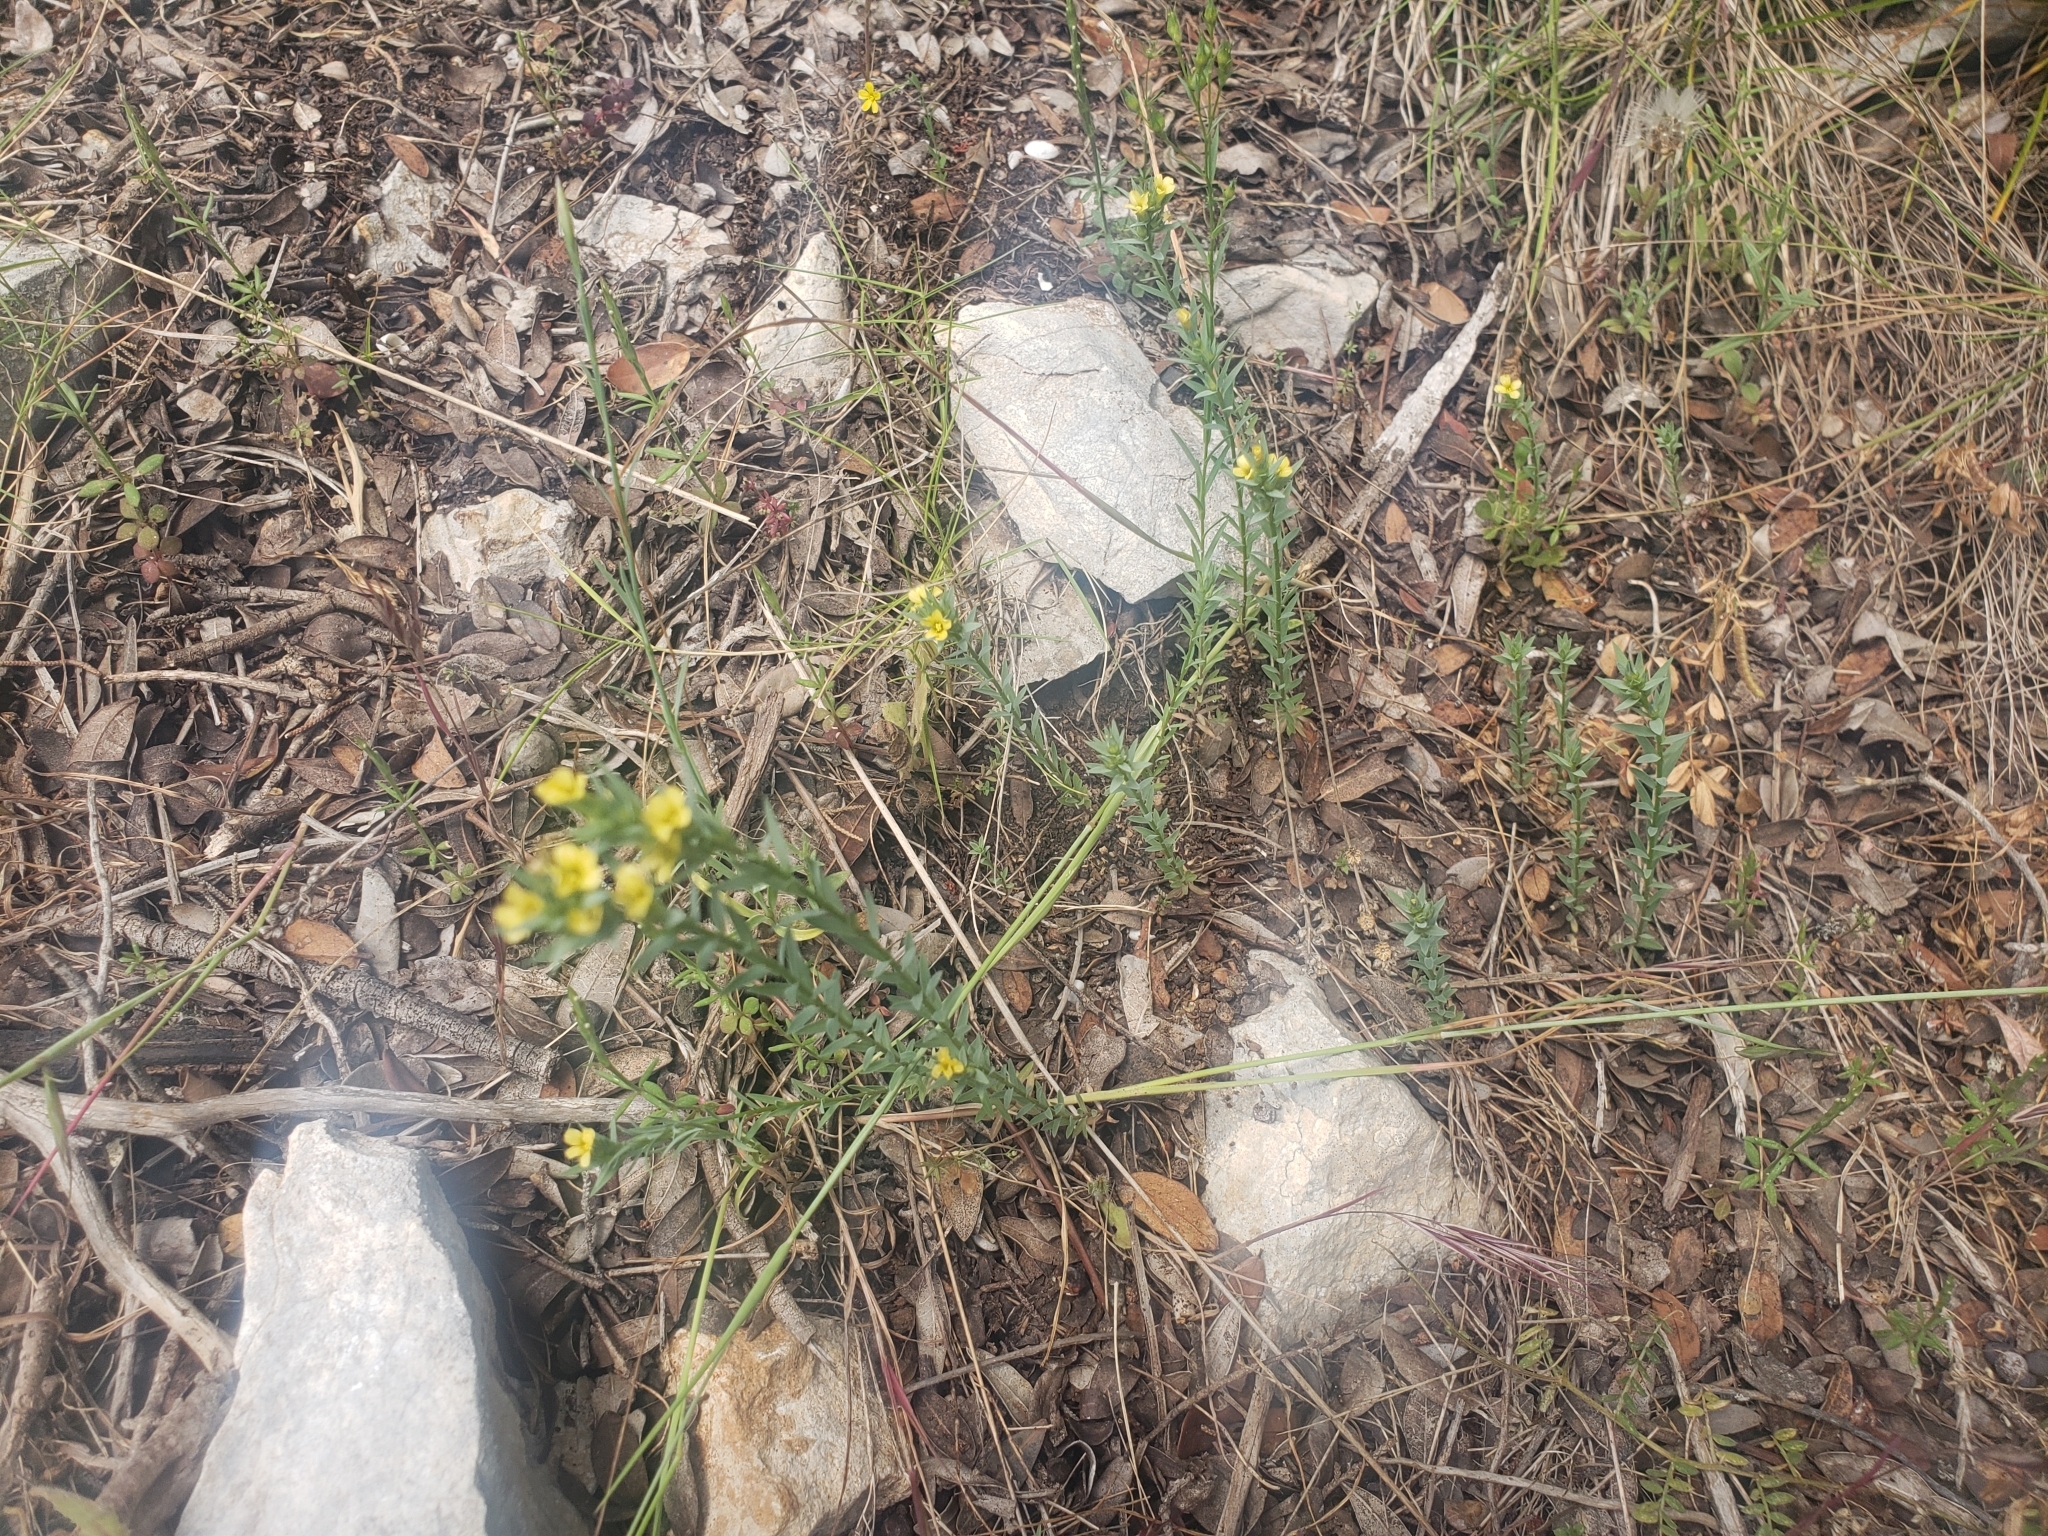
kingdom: Plantae
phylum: Tracheophyta
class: Magnoliopsida
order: Malpighiales
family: Linaceae
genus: Linum
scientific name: Linum strictum
